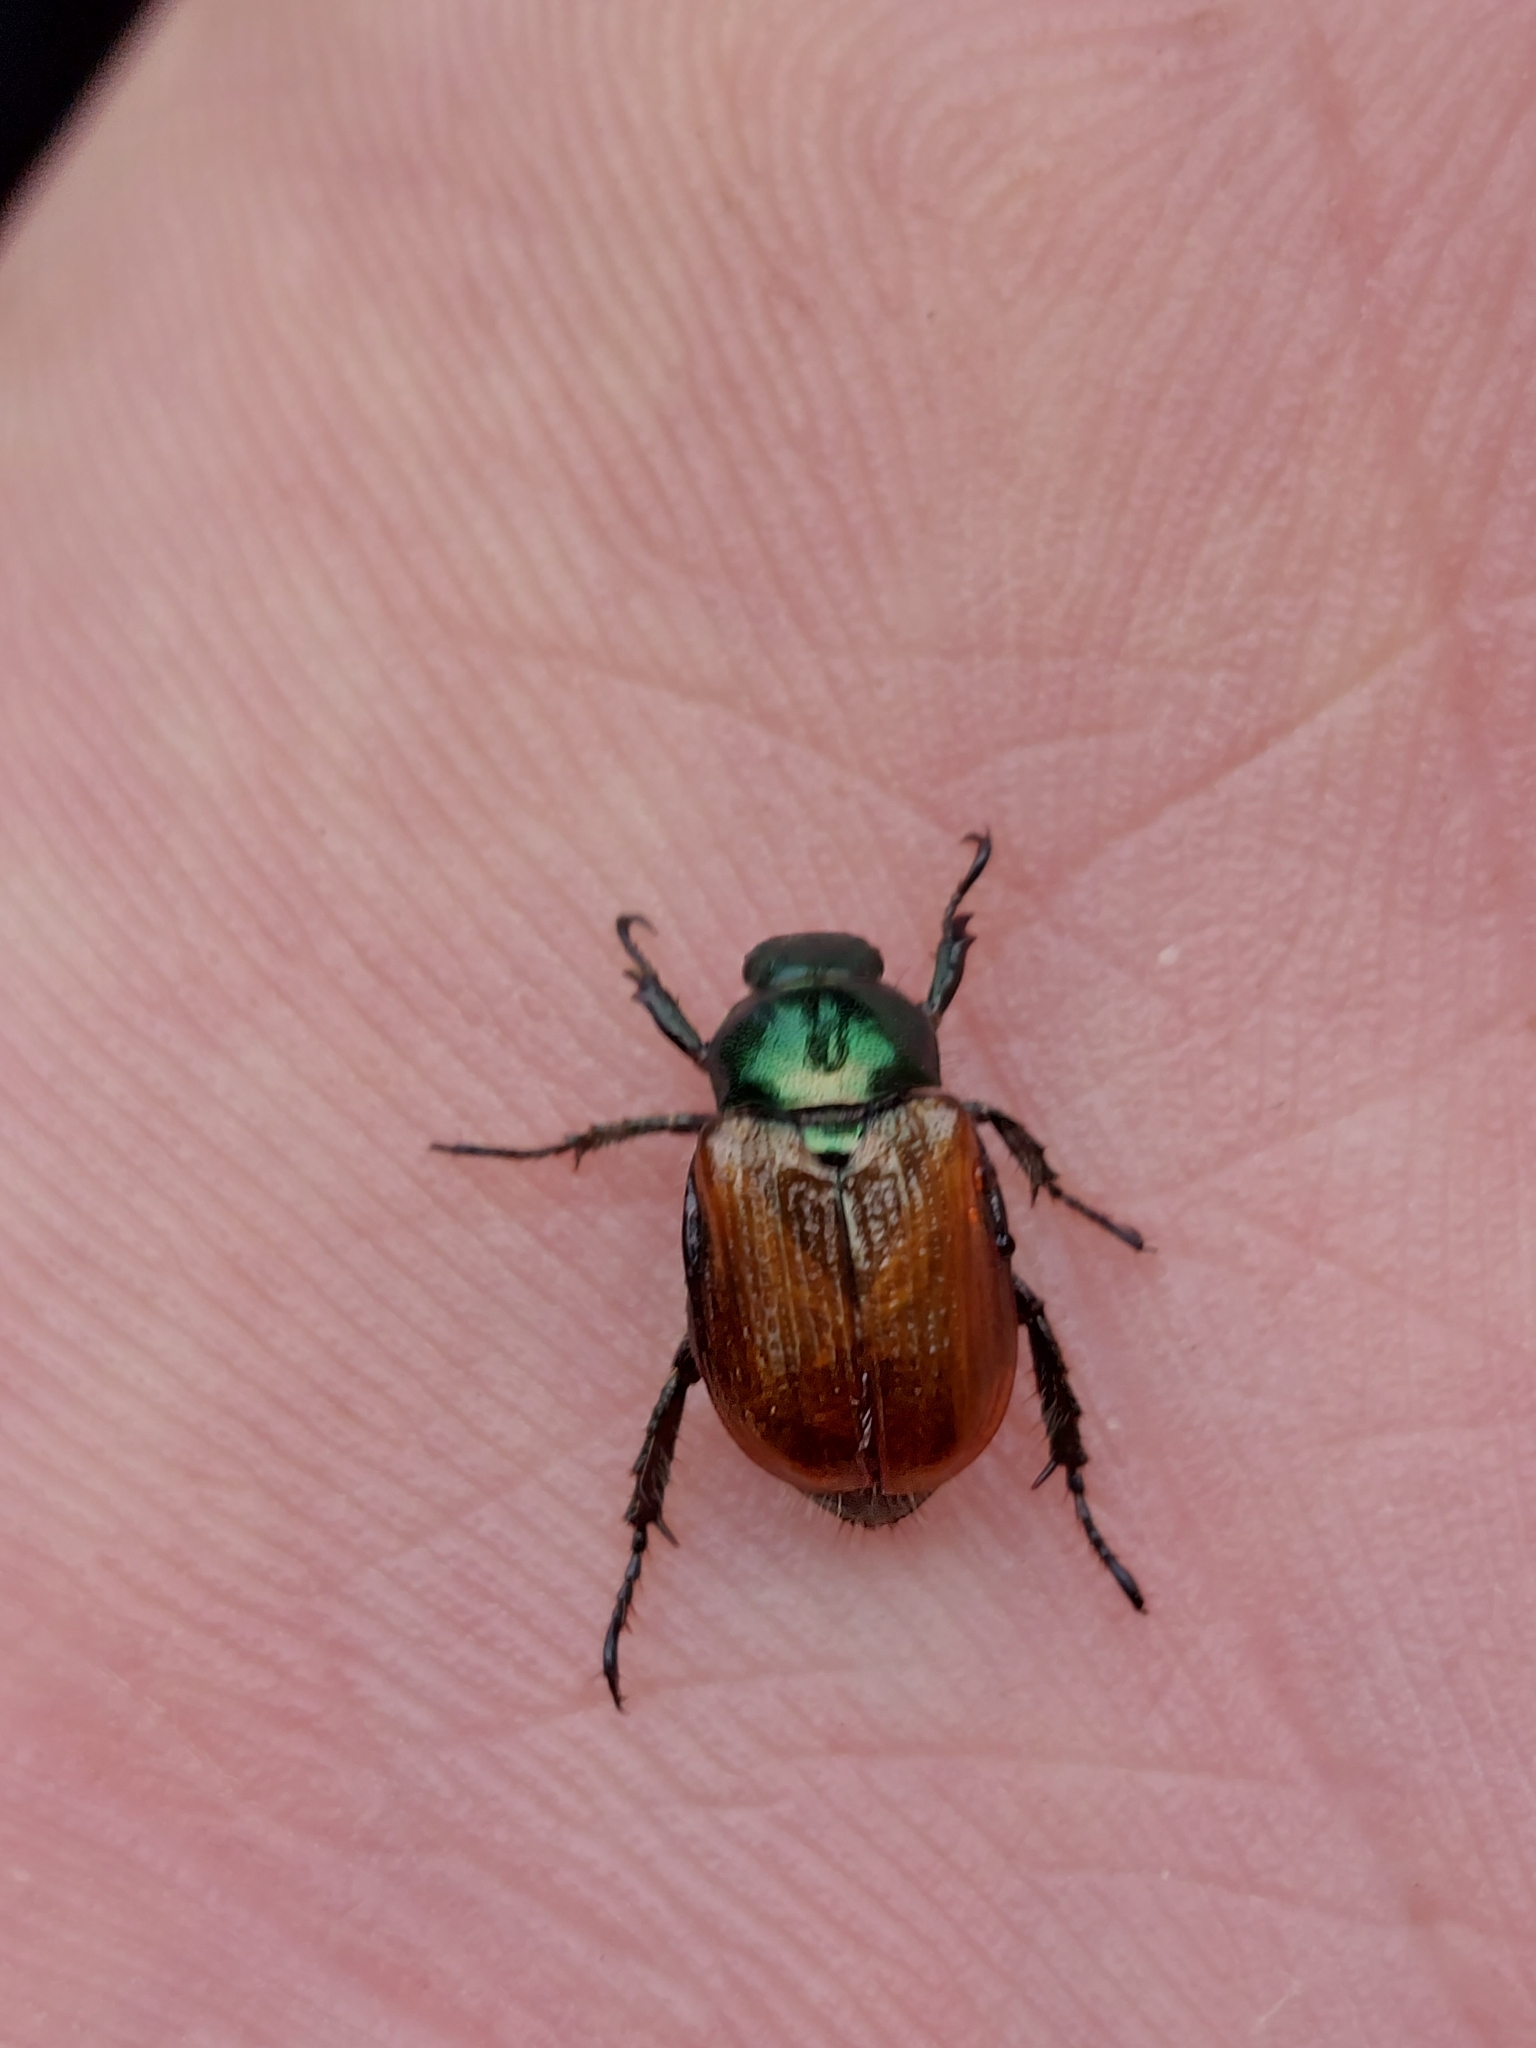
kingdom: Animalia
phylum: Arthropoda
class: Insecta
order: Coleoptera
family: Scarabaeidae
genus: Phyllopertha
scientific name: Phyllopertha horticola
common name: Garden chafer
